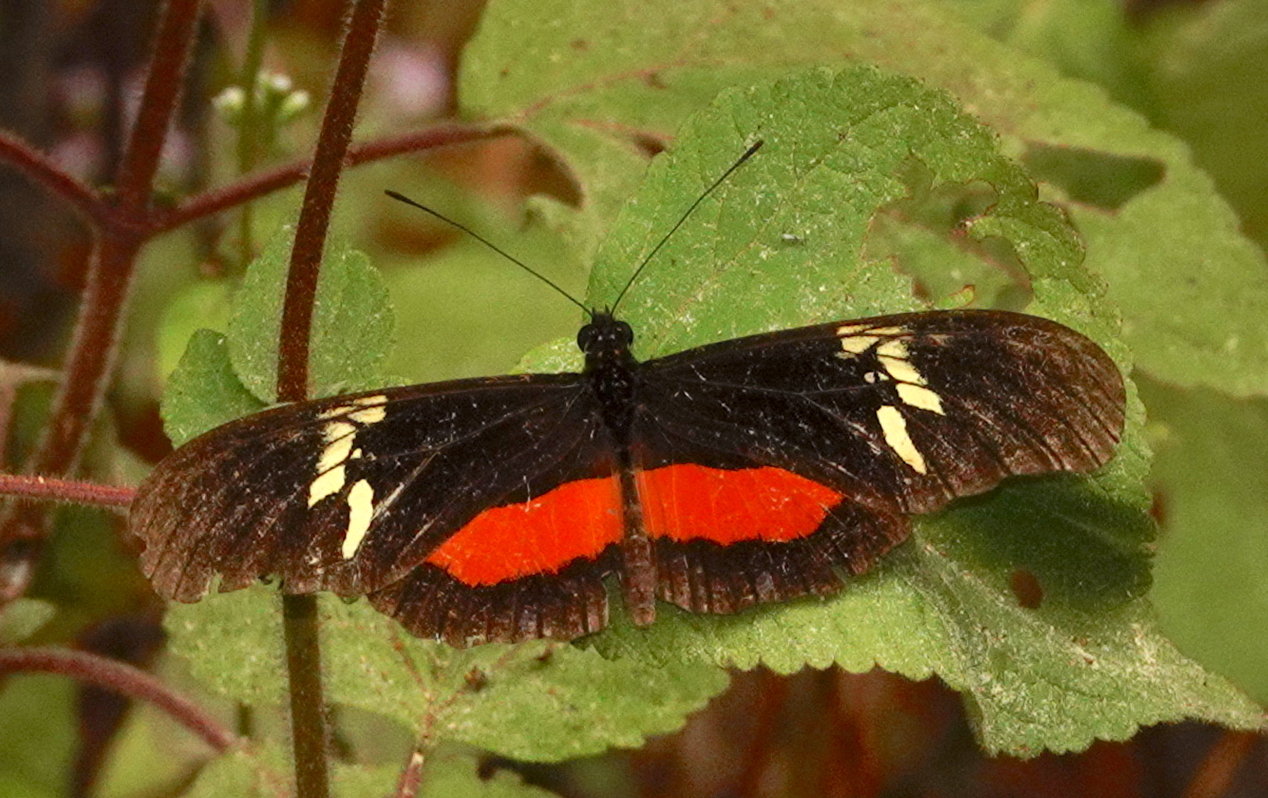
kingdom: Animalia
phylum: Arthropoda
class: Insecta
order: Lepidoptera
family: Nymphalidae
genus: Heliconius
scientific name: Heliconius hortense
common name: Mexican longwing
